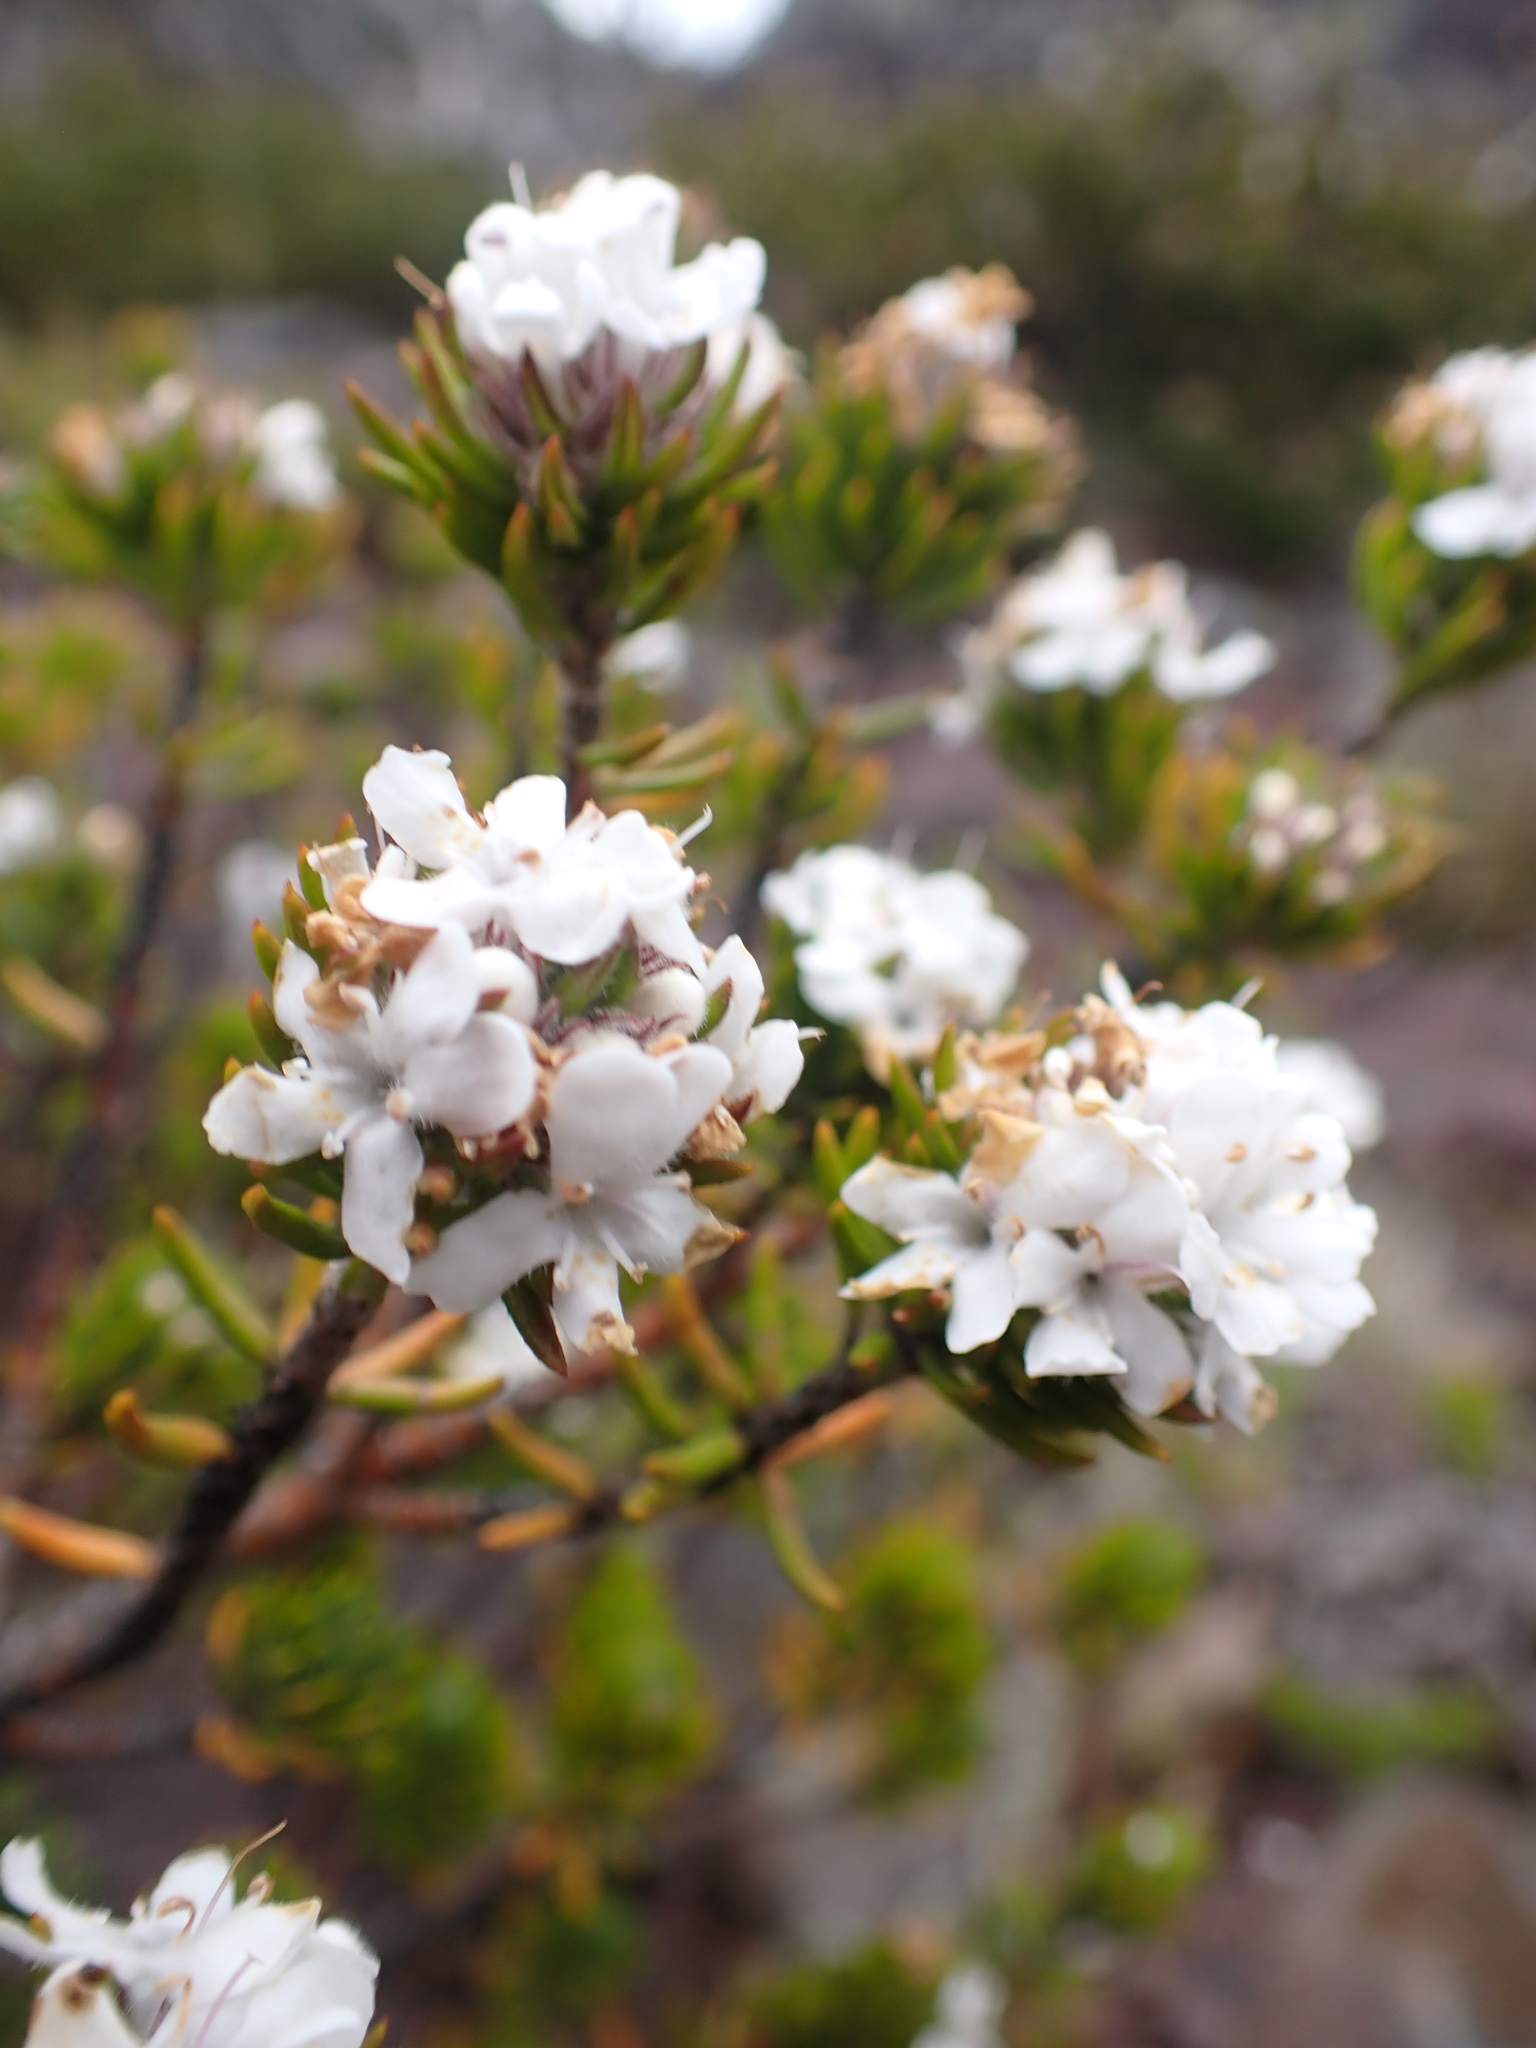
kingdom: Plantae
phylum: Tracheophyta
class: Magnoliopsida
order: Lamiales
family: Lamiaceae
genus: Westringia
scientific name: Westringia senifolia
